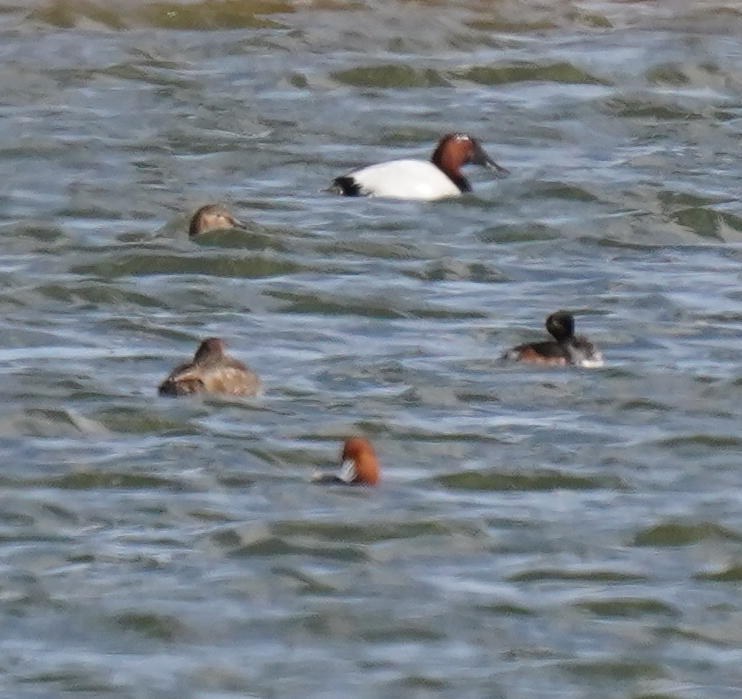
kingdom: Animalia
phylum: Chordata
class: Aves
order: Anseriformes
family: Anatidae
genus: Aythya
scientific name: Aythya americana
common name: Redhead
